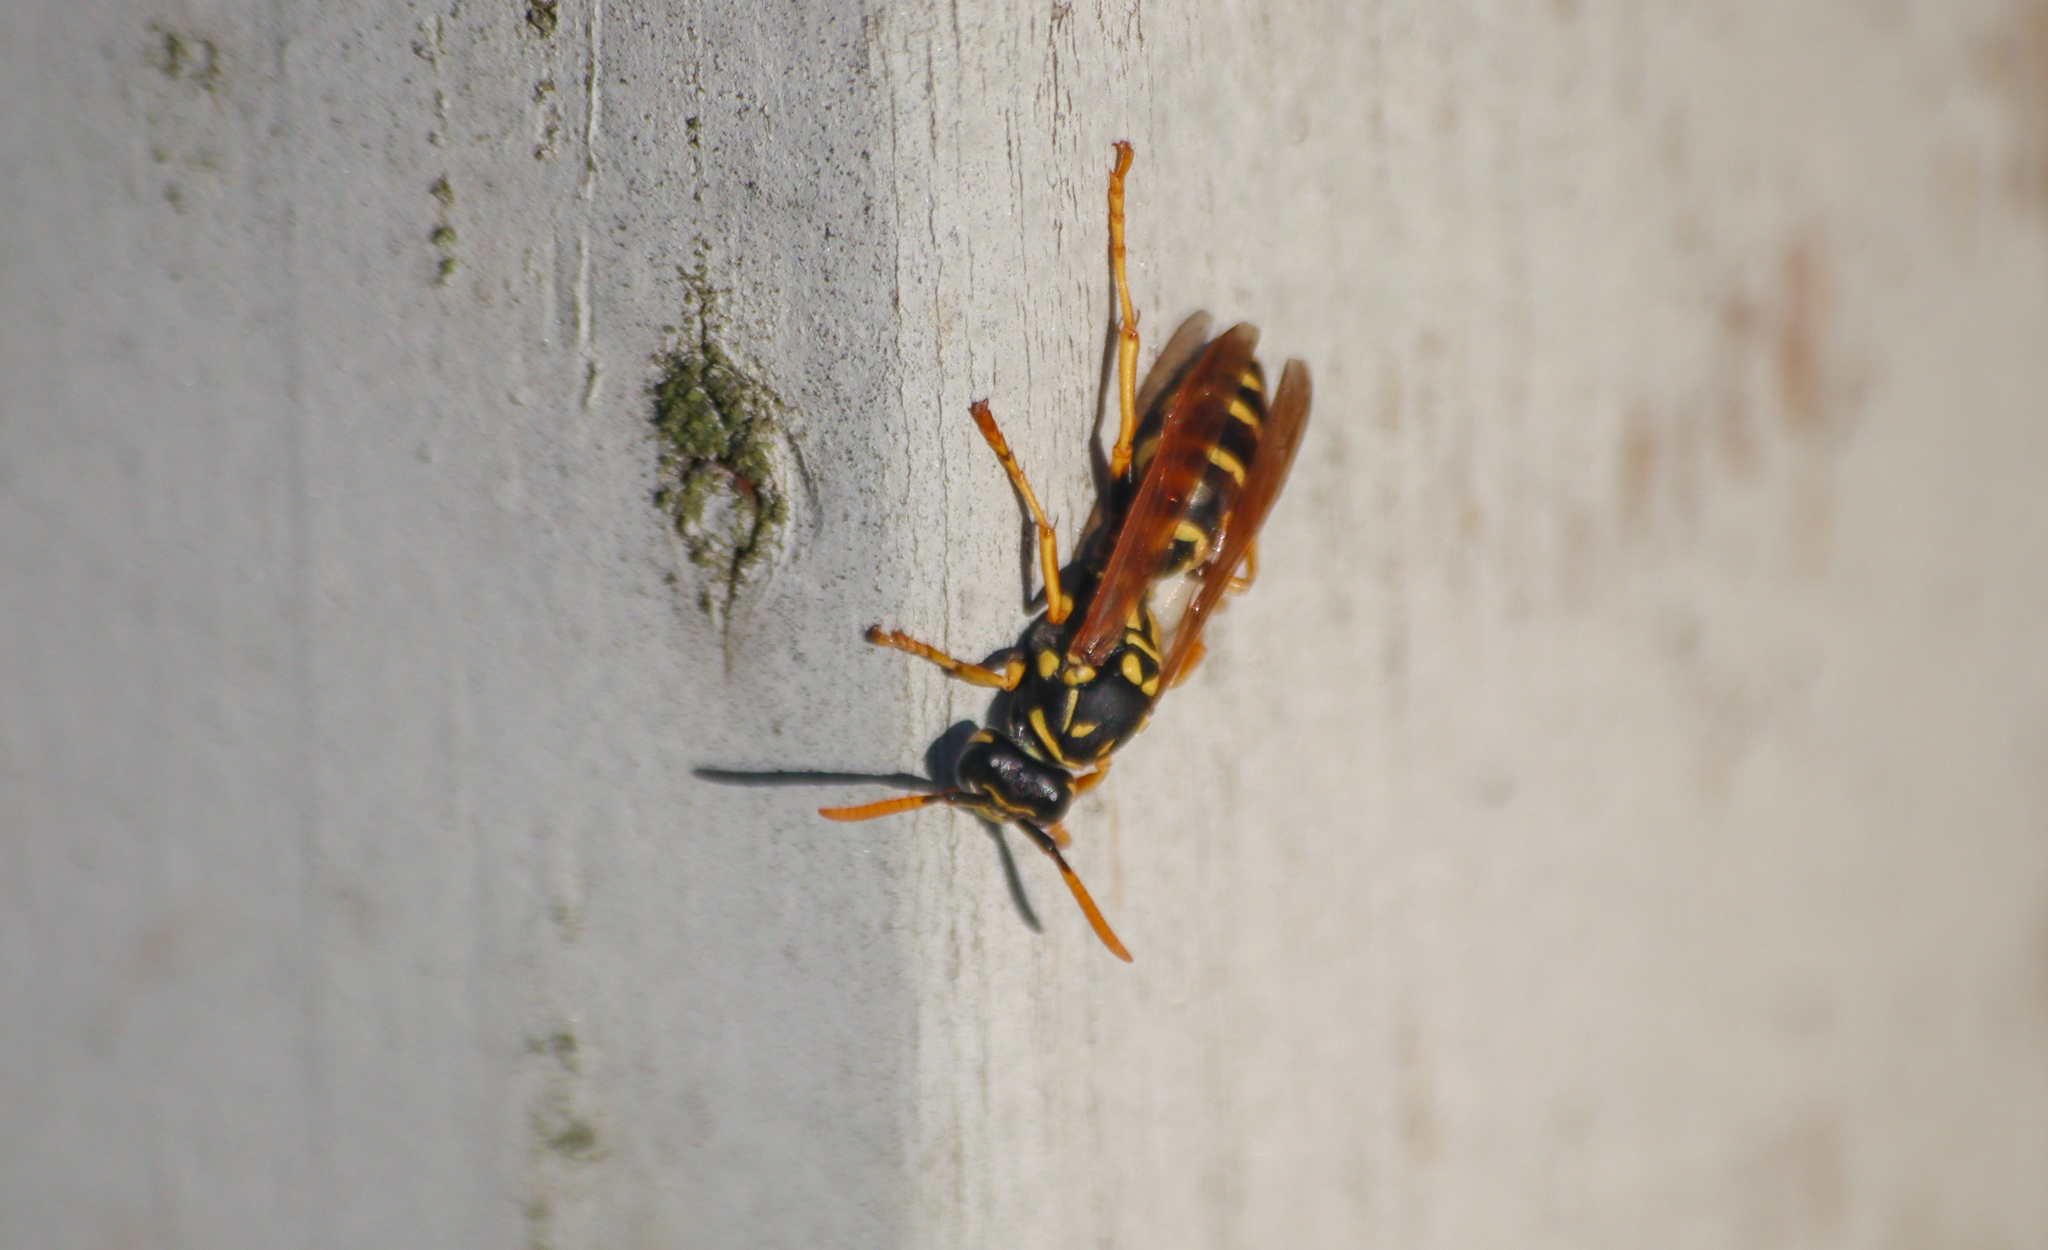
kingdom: Animalia
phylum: Arthropoda
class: Insecta
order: Hymenoptera
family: Eumenidae
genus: Polistes
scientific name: Polistes dominula
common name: Paper wasp
